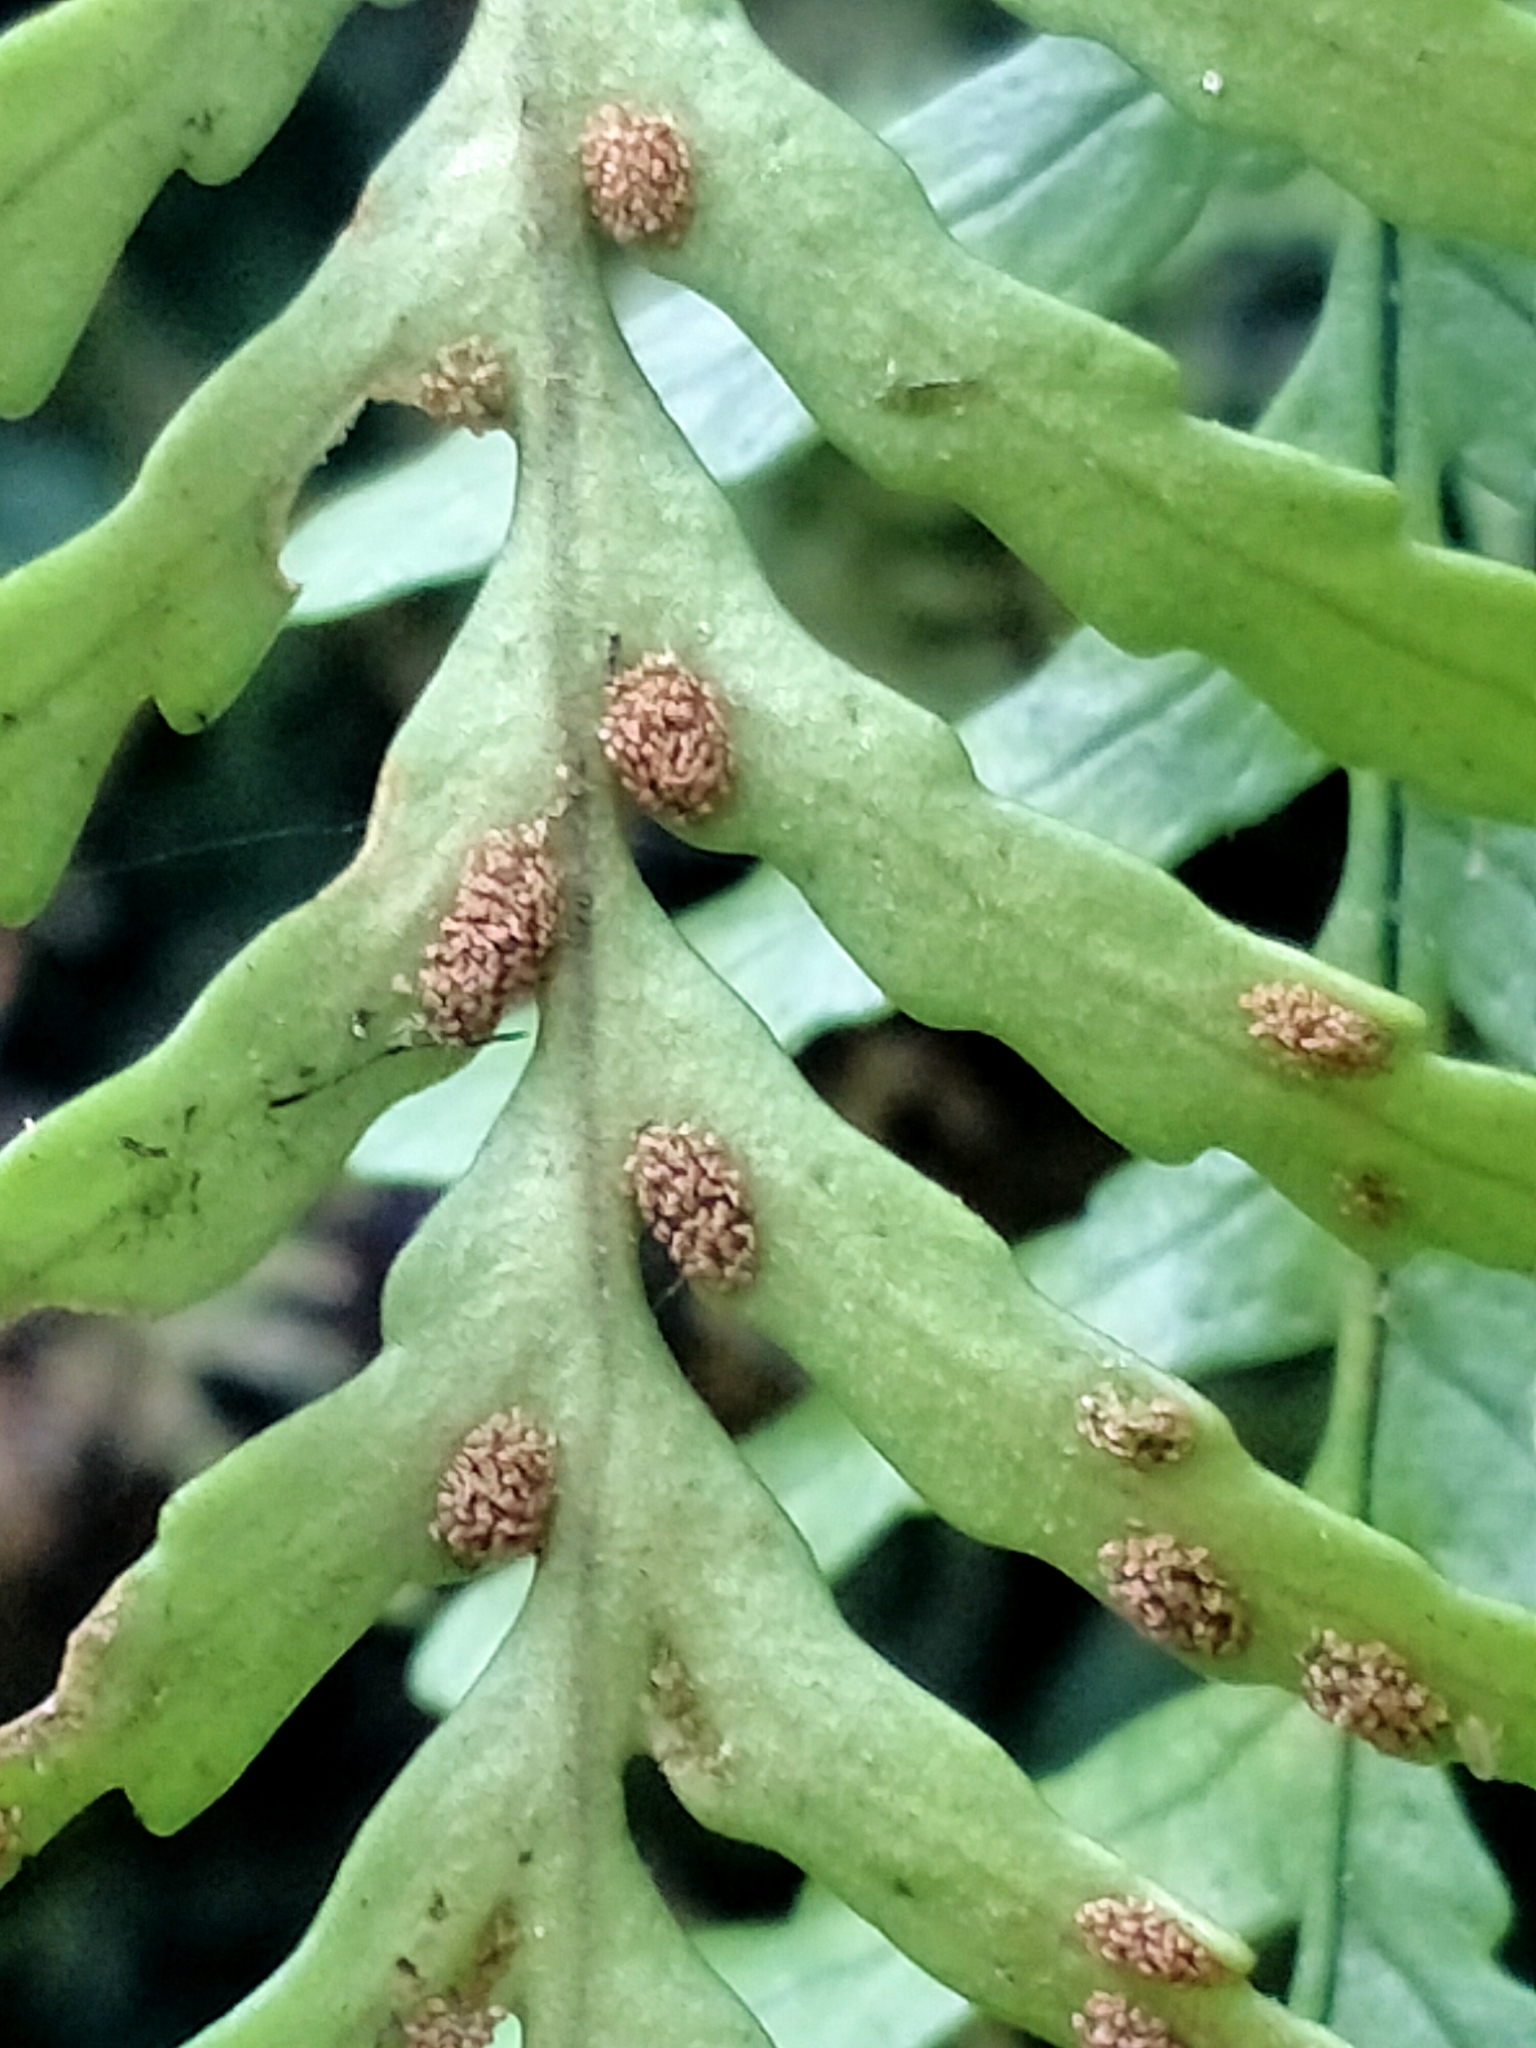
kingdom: Plantae
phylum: Tracheophyta
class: Polypodiopsida
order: Polypodiales
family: Polypodiaceae
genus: Notogrammitis
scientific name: Notogrammitis heterophylla
